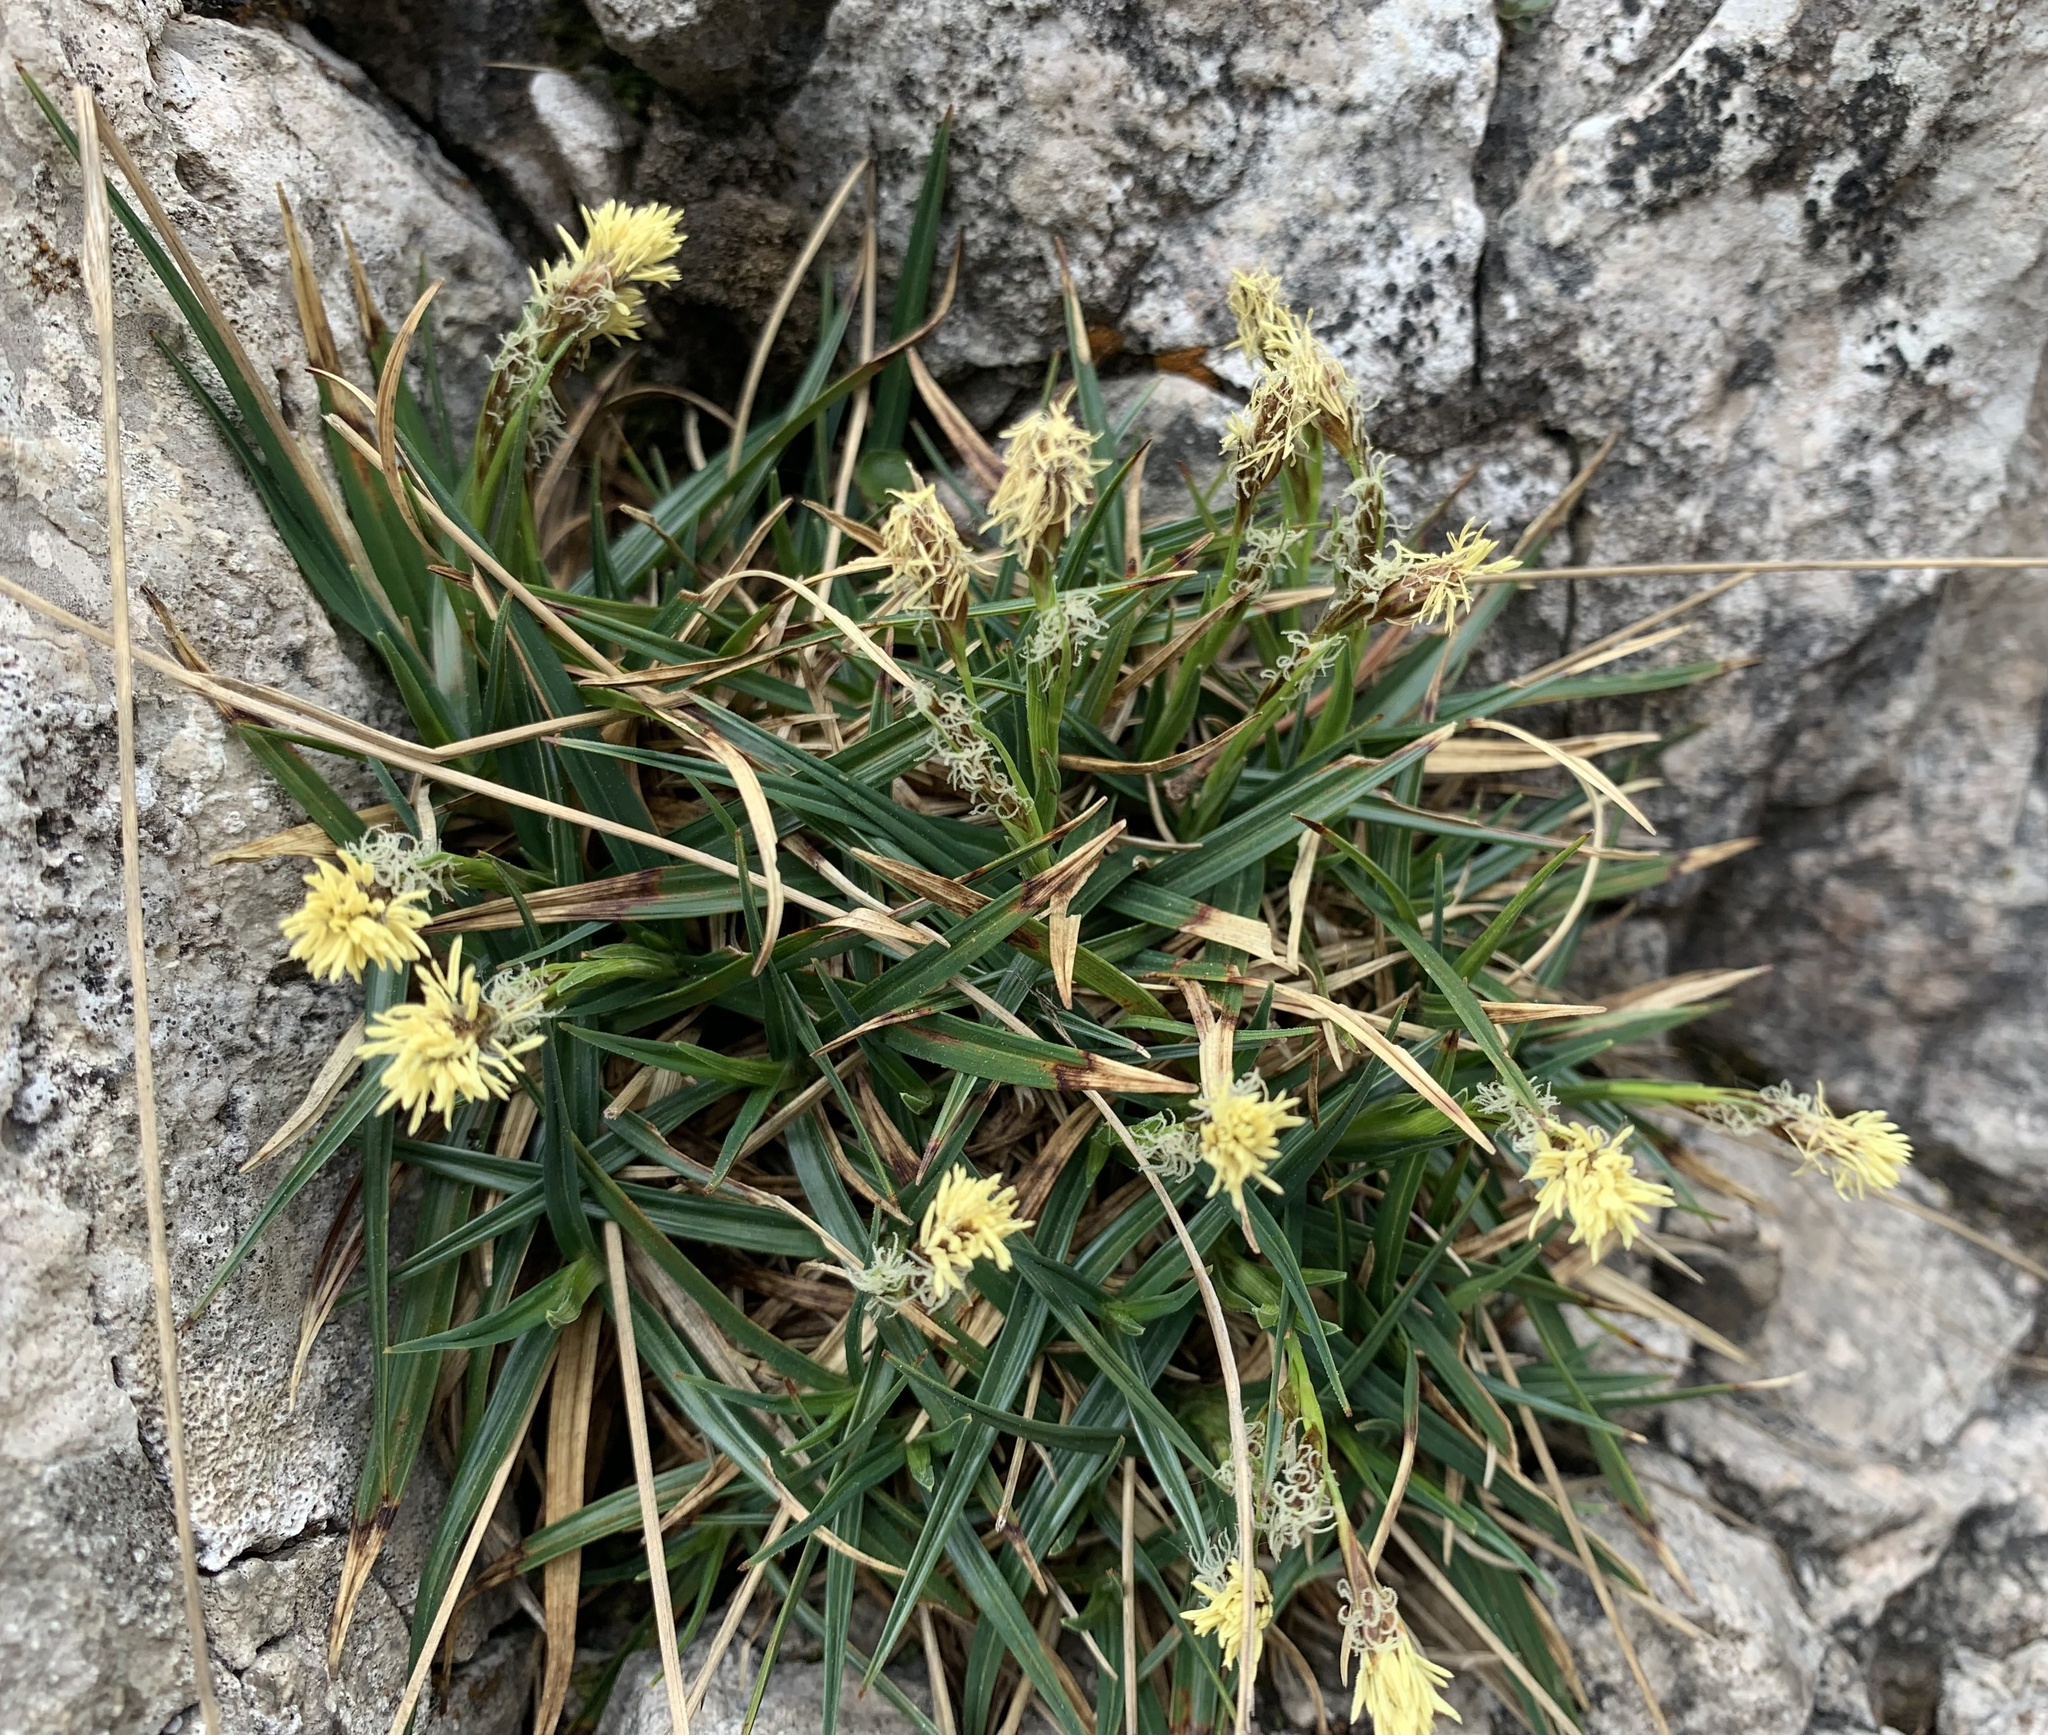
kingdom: Plantae
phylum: Tracheophyta
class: Liliopsida
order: Poales
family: Cyperaceae
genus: Carex
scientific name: Carex caryophyllea
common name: Spring sedge
